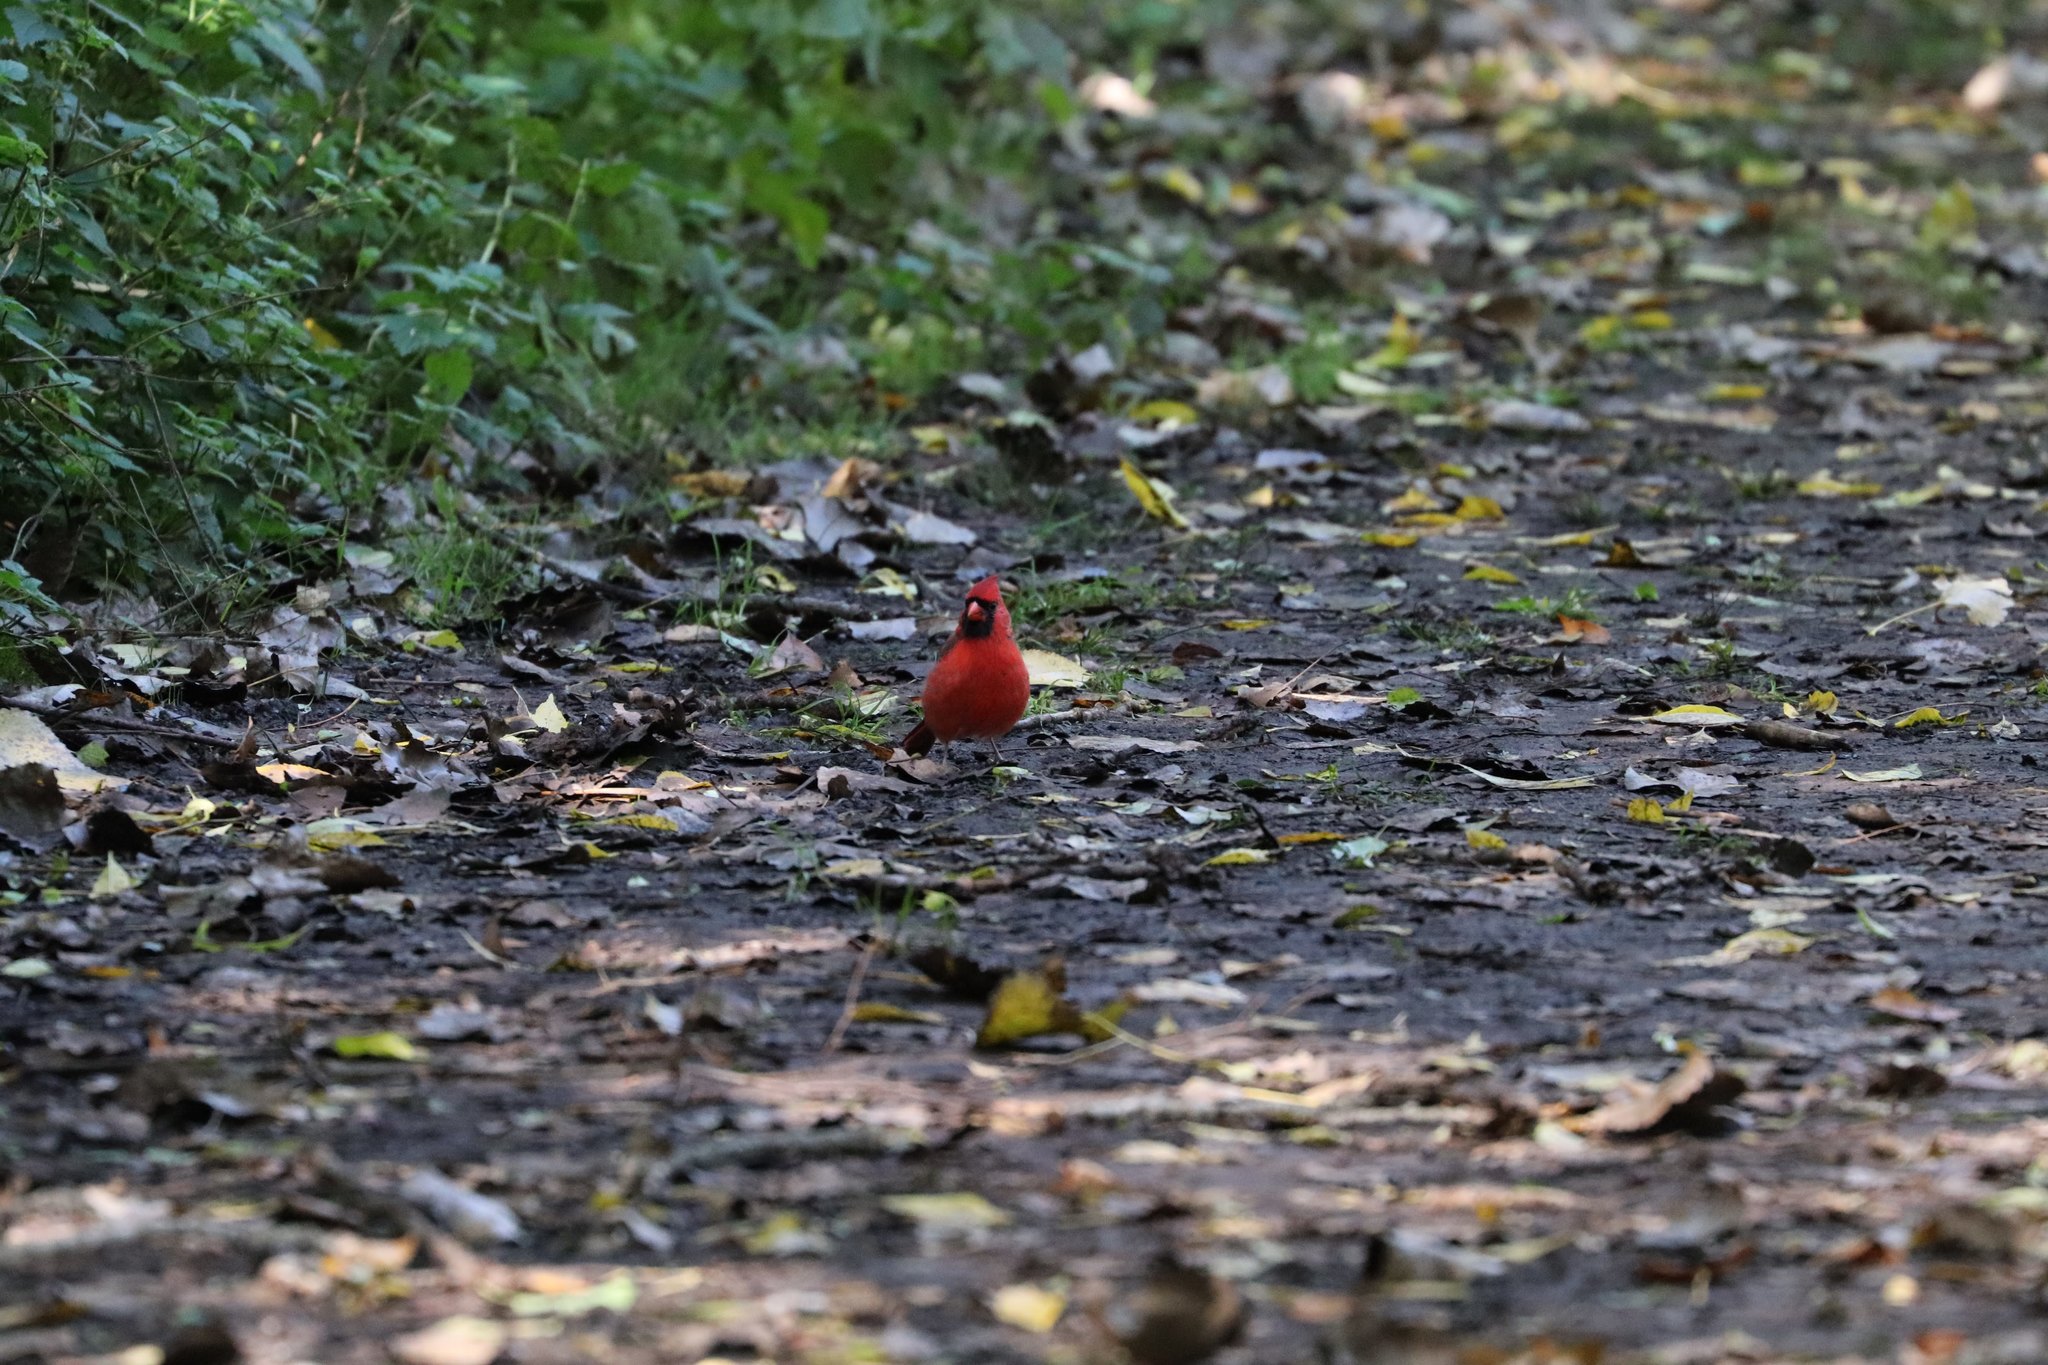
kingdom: Animalia
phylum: Chordata
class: Aves
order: Passeriformes
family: Cardinalidae
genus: Cardinalis
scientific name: Cardinalis cardinalis
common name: Northern cardinal
